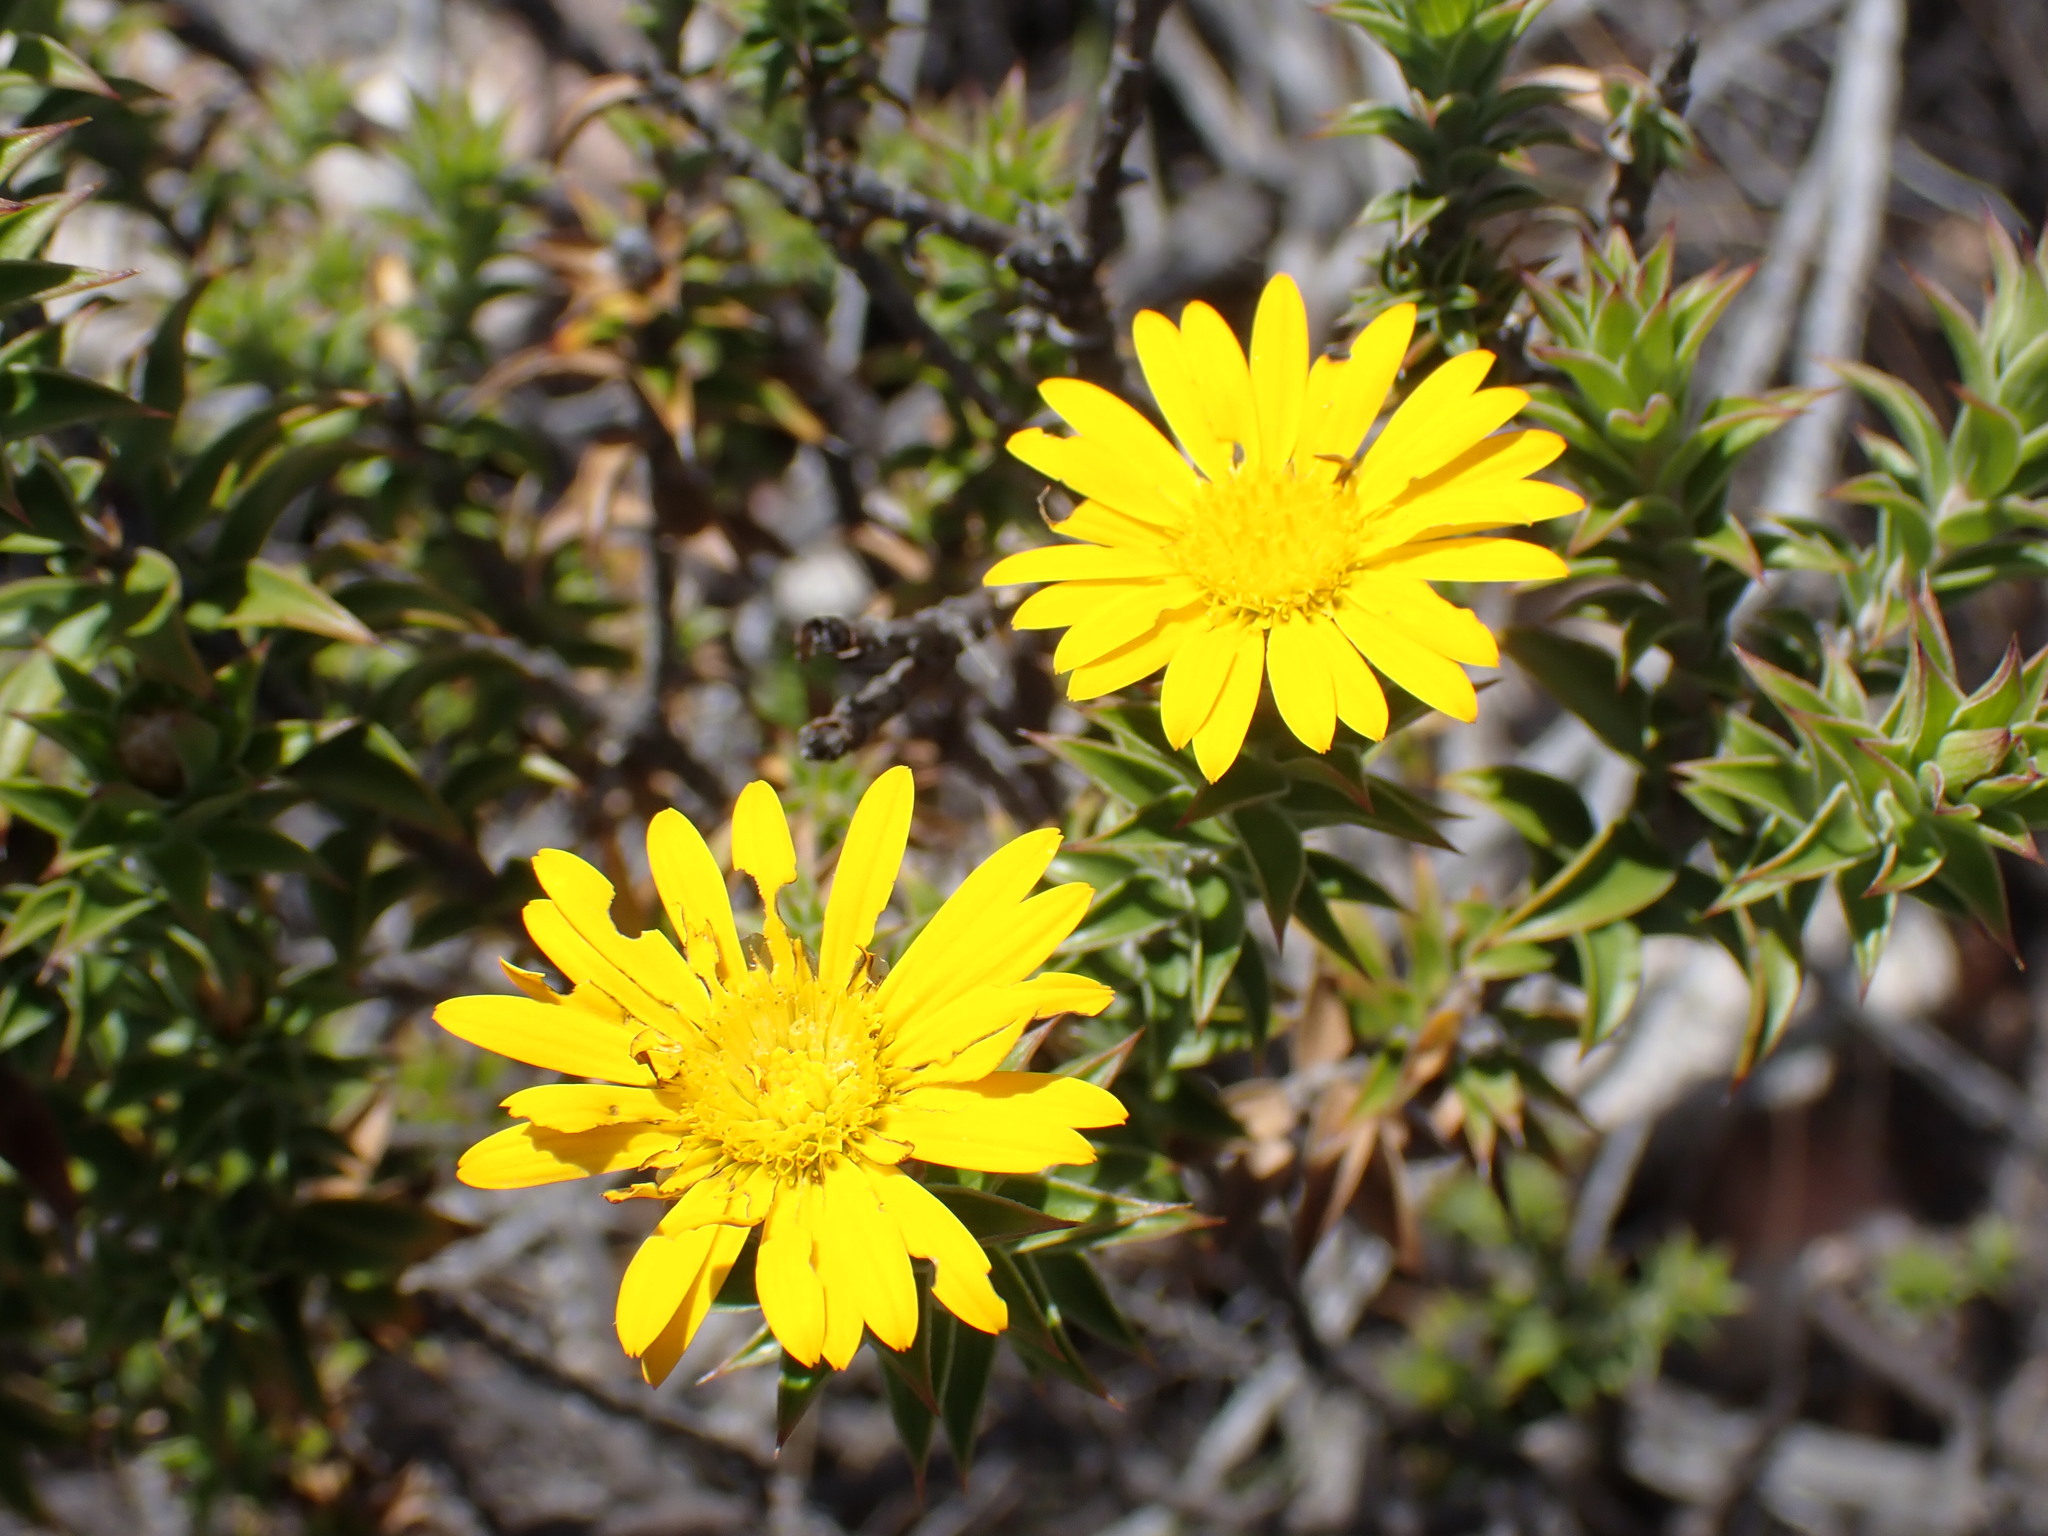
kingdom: Plantae
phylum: Tracheophyta
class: Magnoliopsida
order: Asterales
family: Asteraceae
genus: Oedera
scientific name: Oedera speciosa
